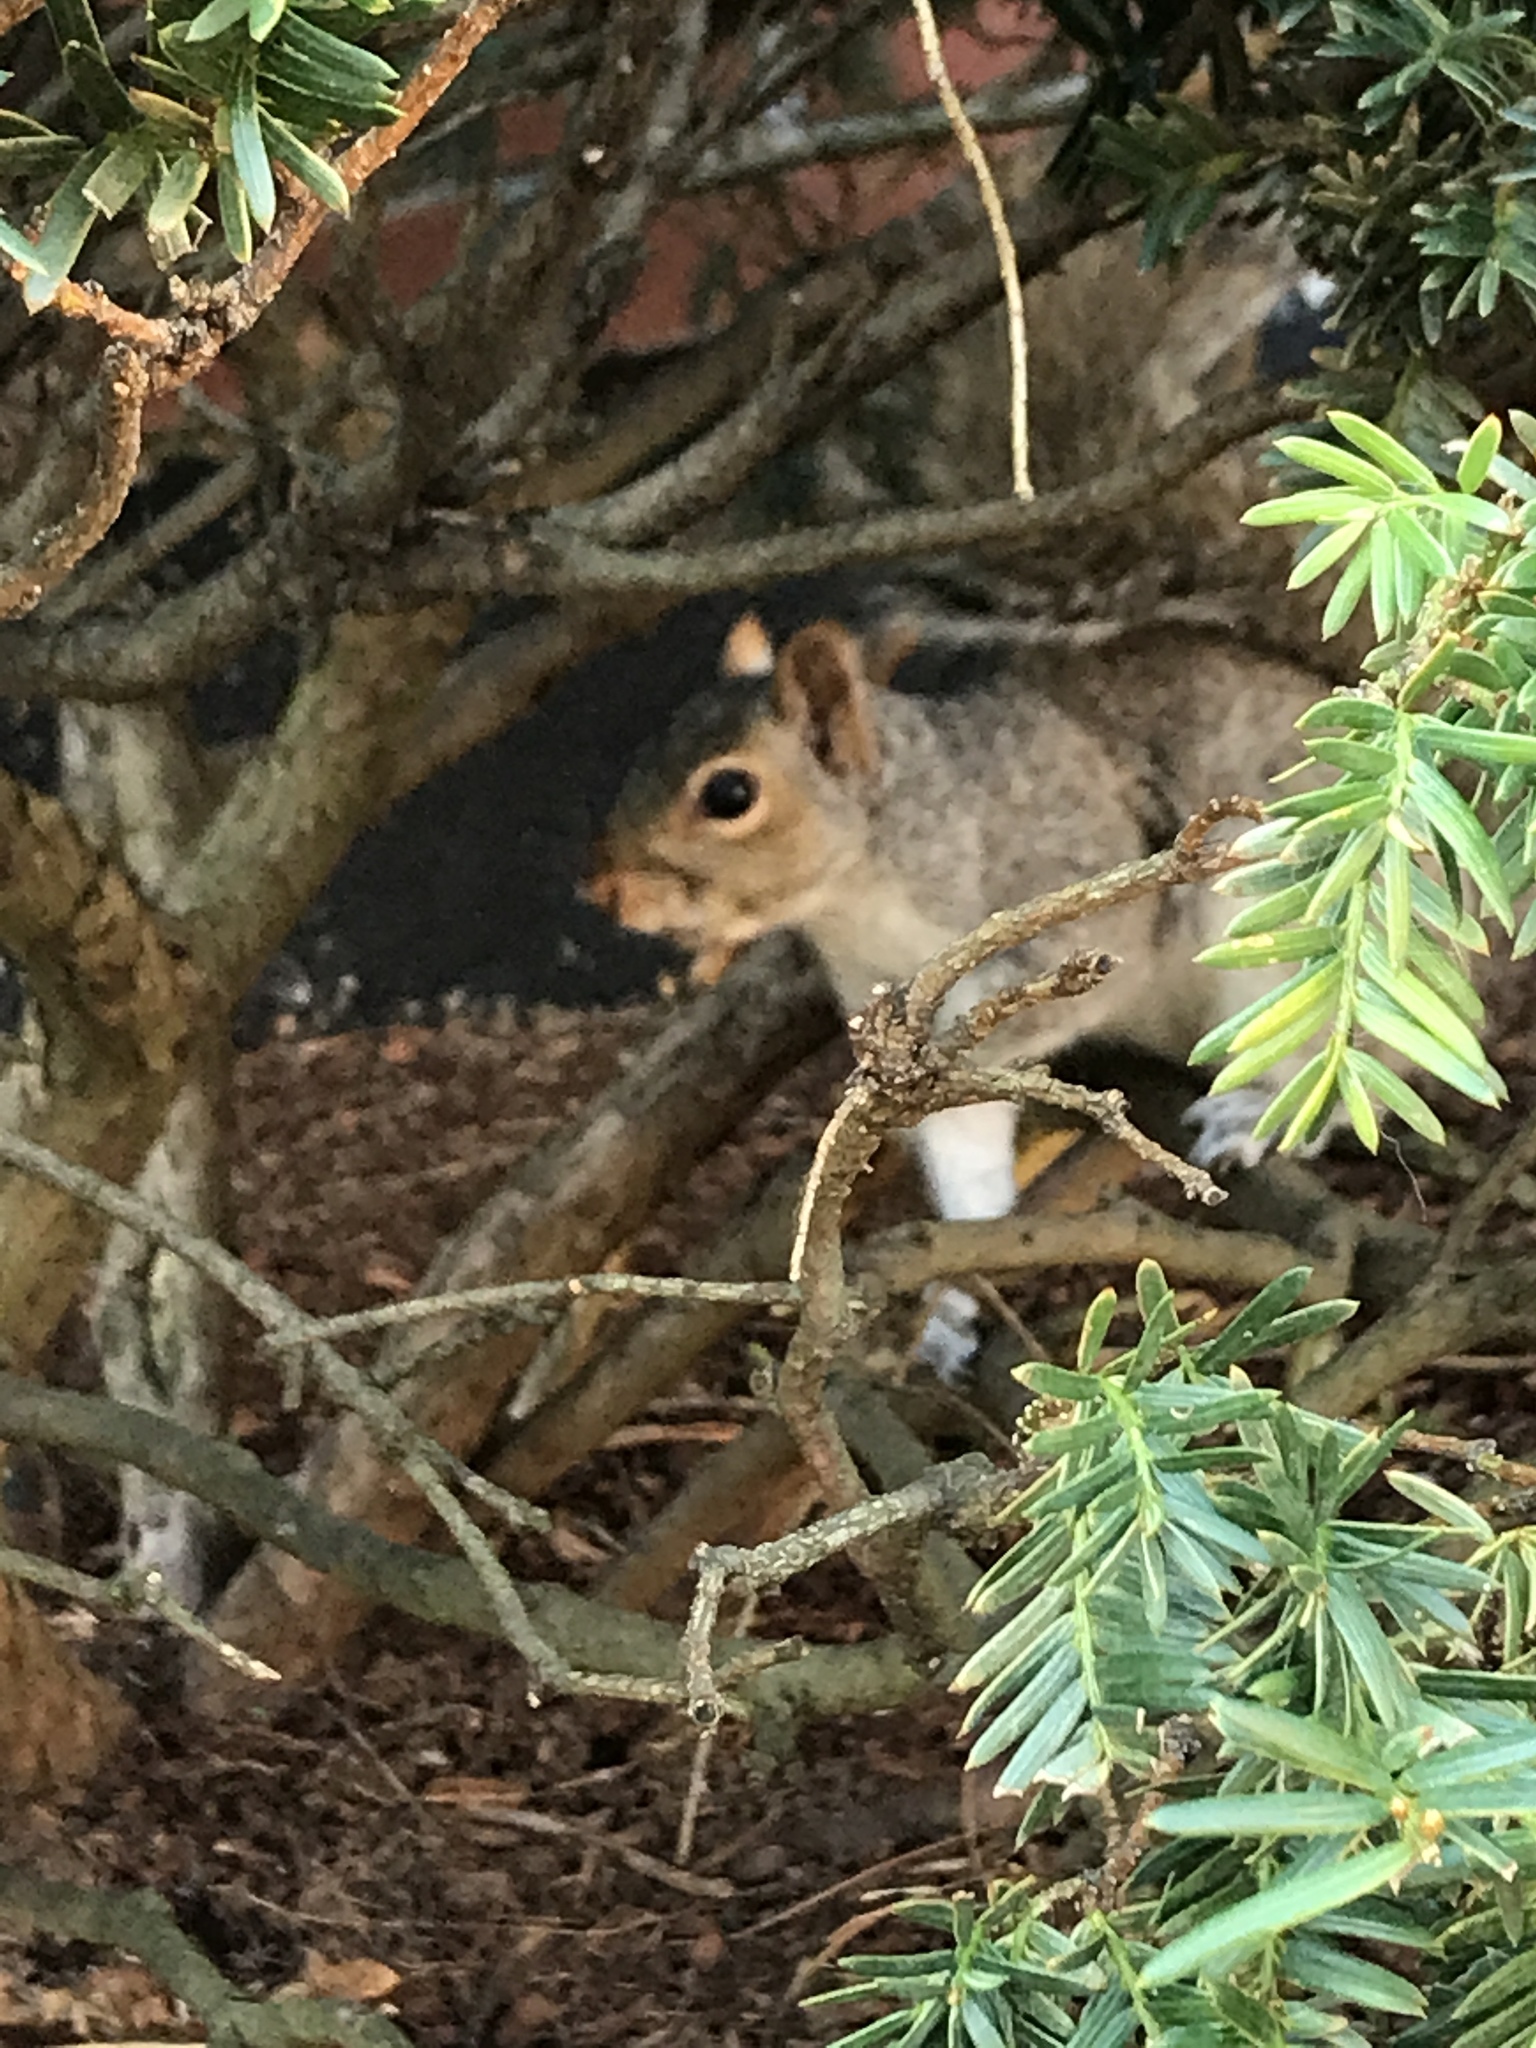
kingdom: Animalia
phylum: Chordata
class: Mammalia
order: Rodentia
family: Sciuridae
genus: Sciurus
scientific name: Sciurus carolinensis
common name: Eastern gray squirrel
